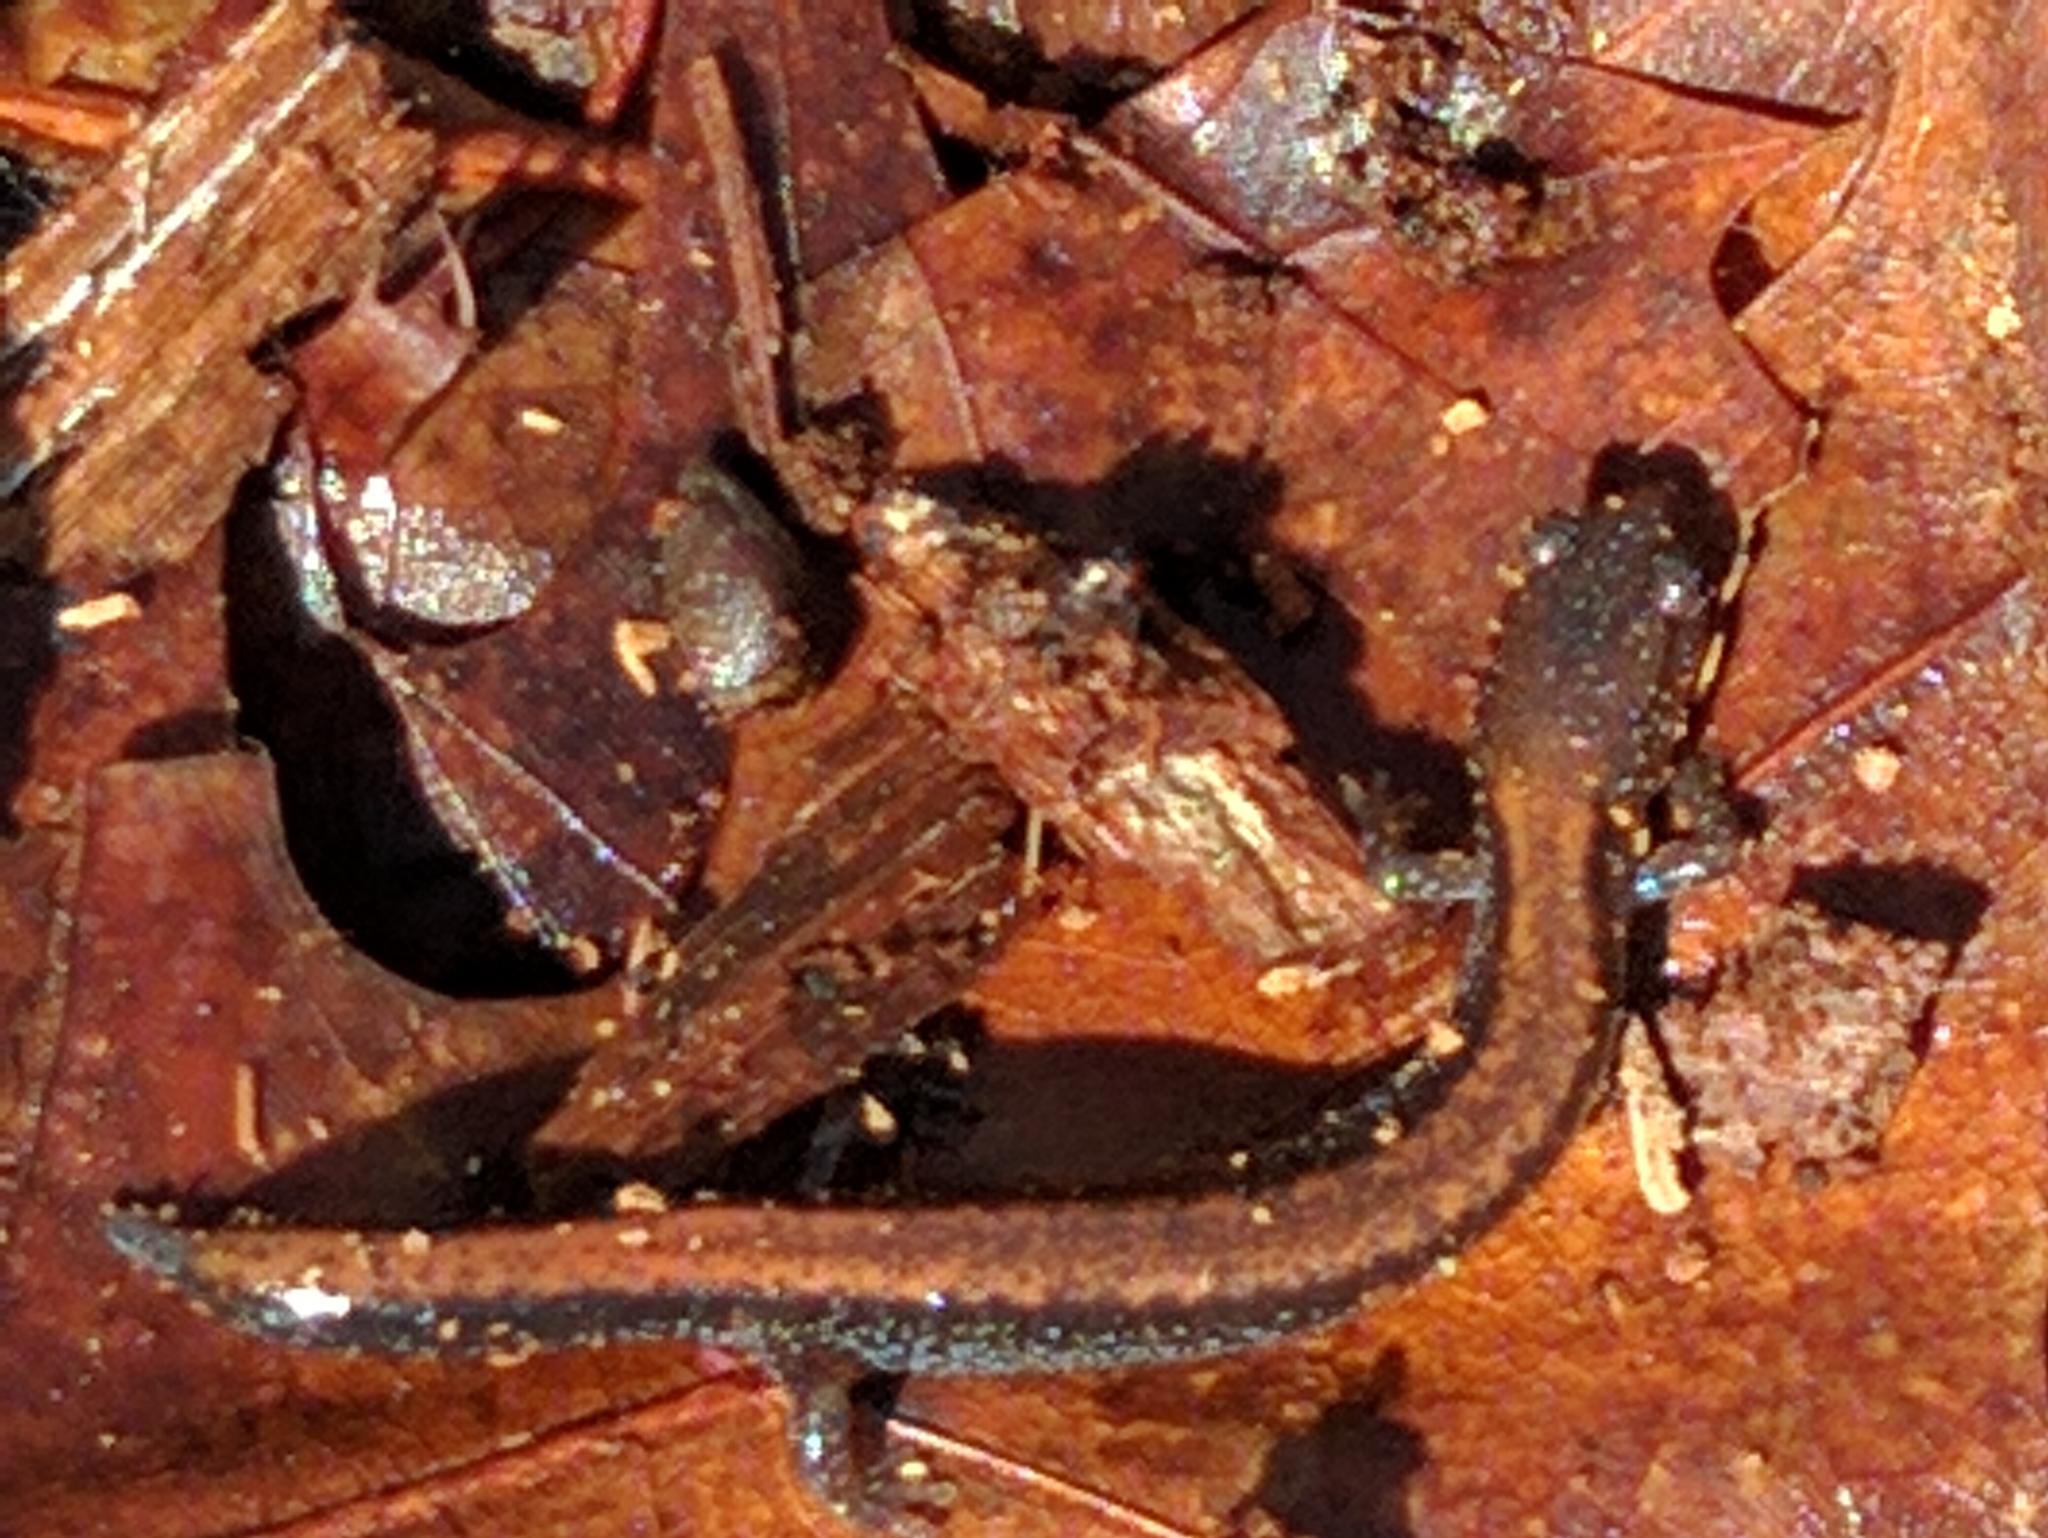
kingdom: Animalia
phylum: Chordata
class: Amphibia
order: Caudata
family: Plethodontidae
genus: Plethodon
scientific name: Plethodon cinereus
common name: Redback salamander
